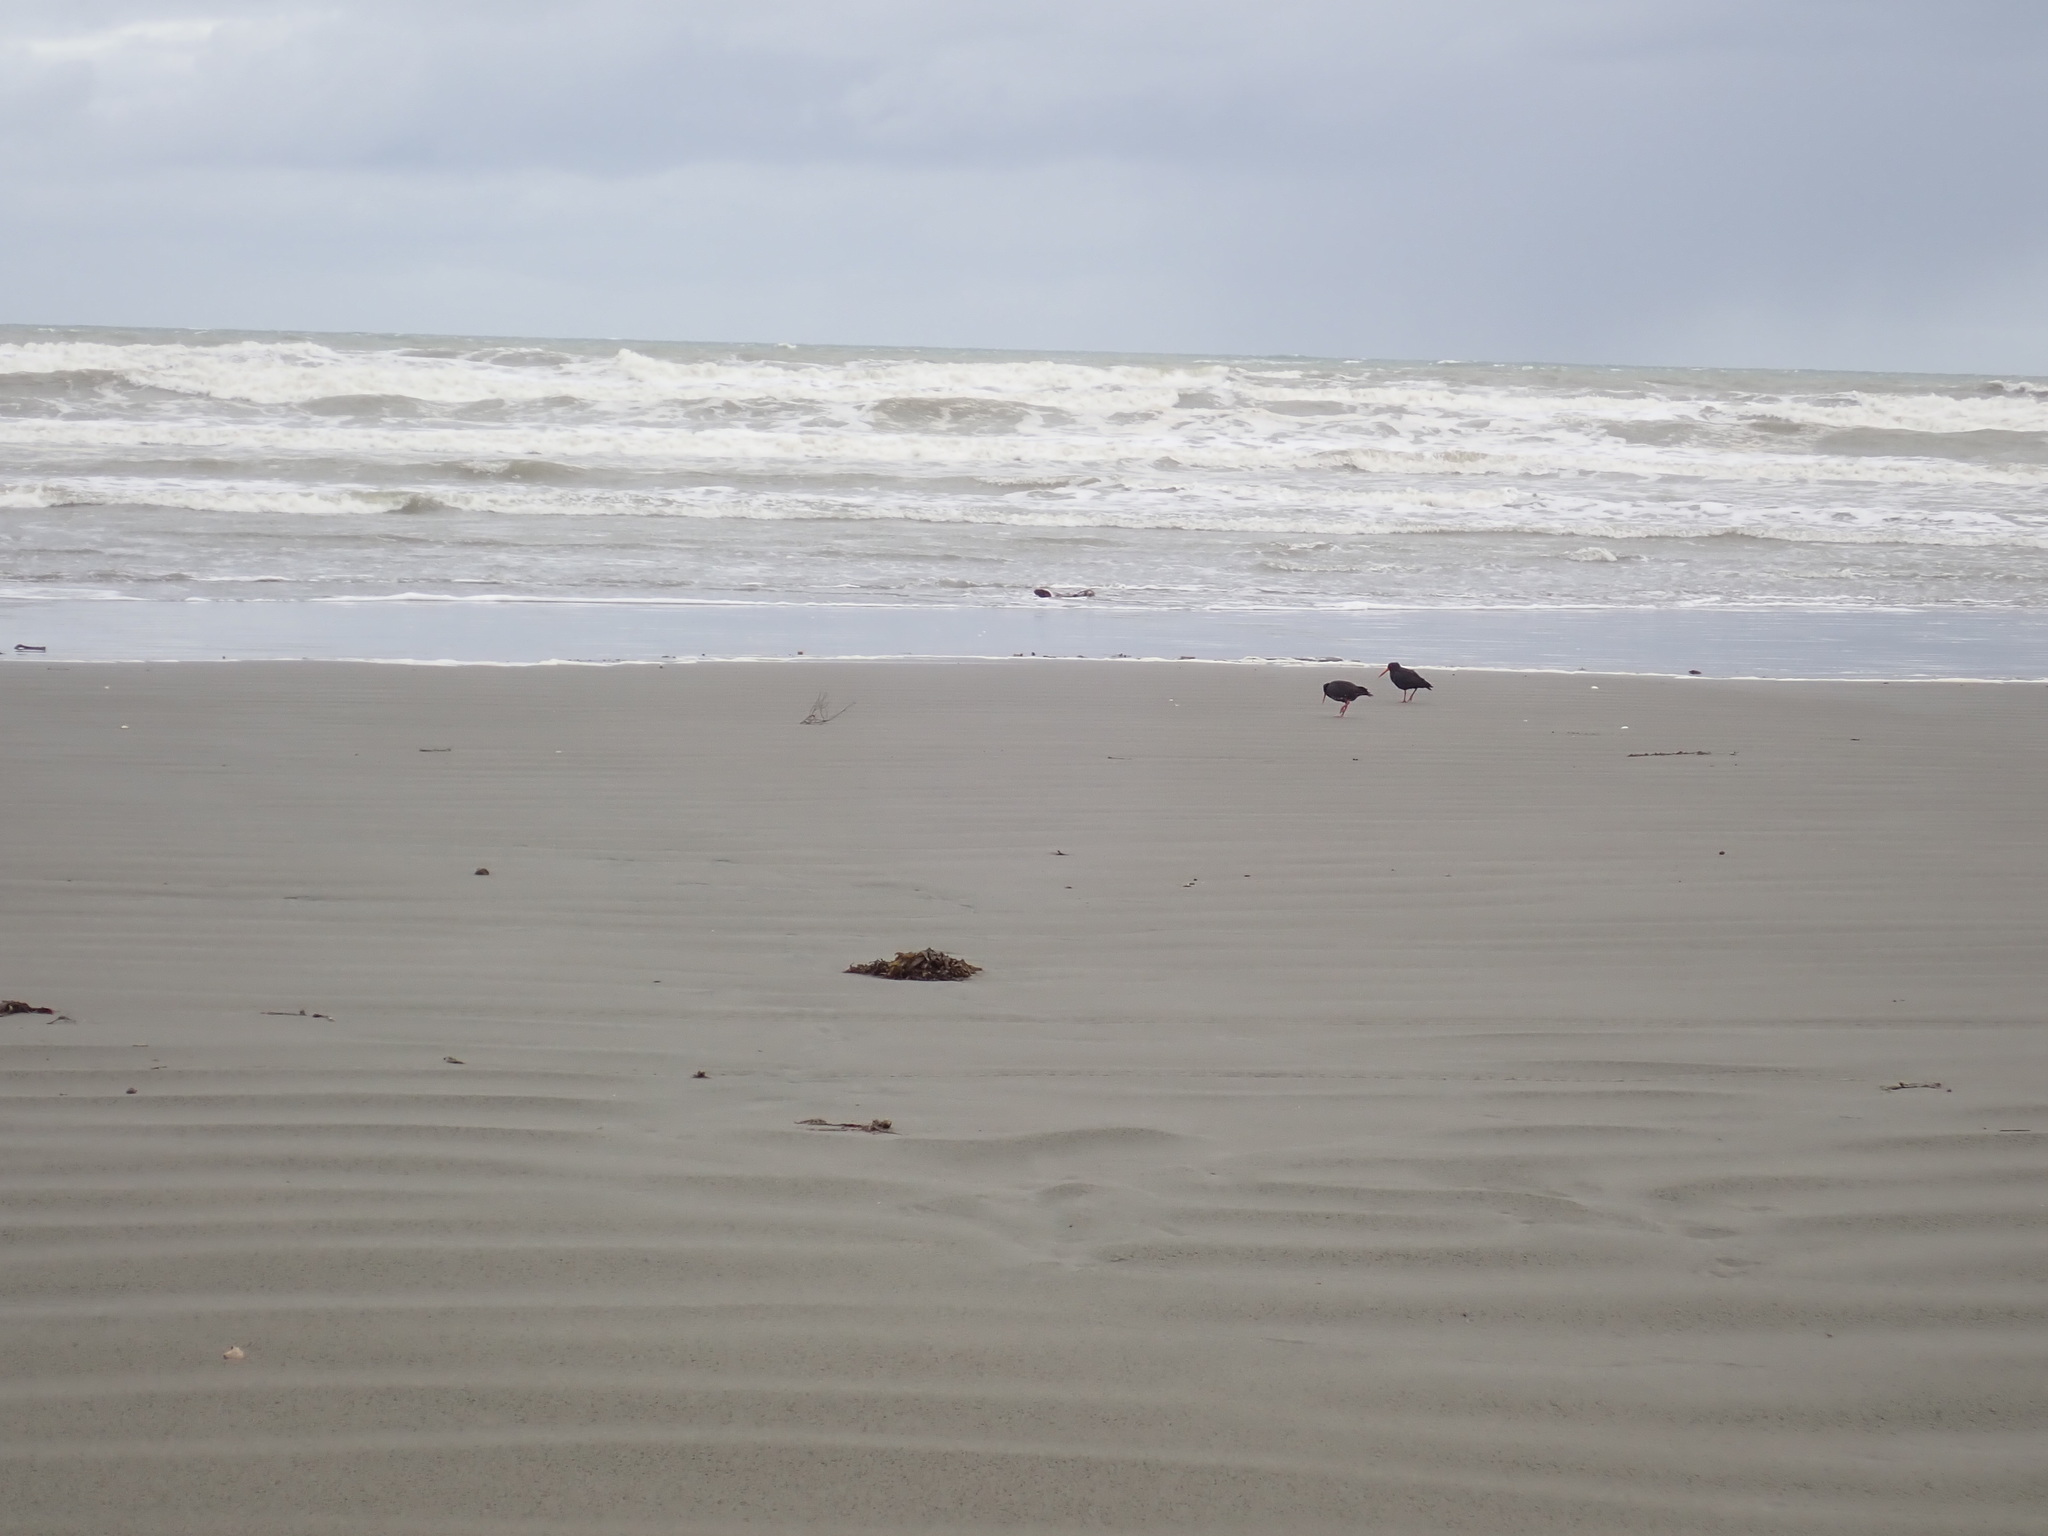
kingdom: Animalia
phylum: Chordata
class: Aves
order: Charadriiformes
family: Haematopodidae
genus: Haematopus
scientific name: Haematopus unicolor
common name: Variable oystercatcher
